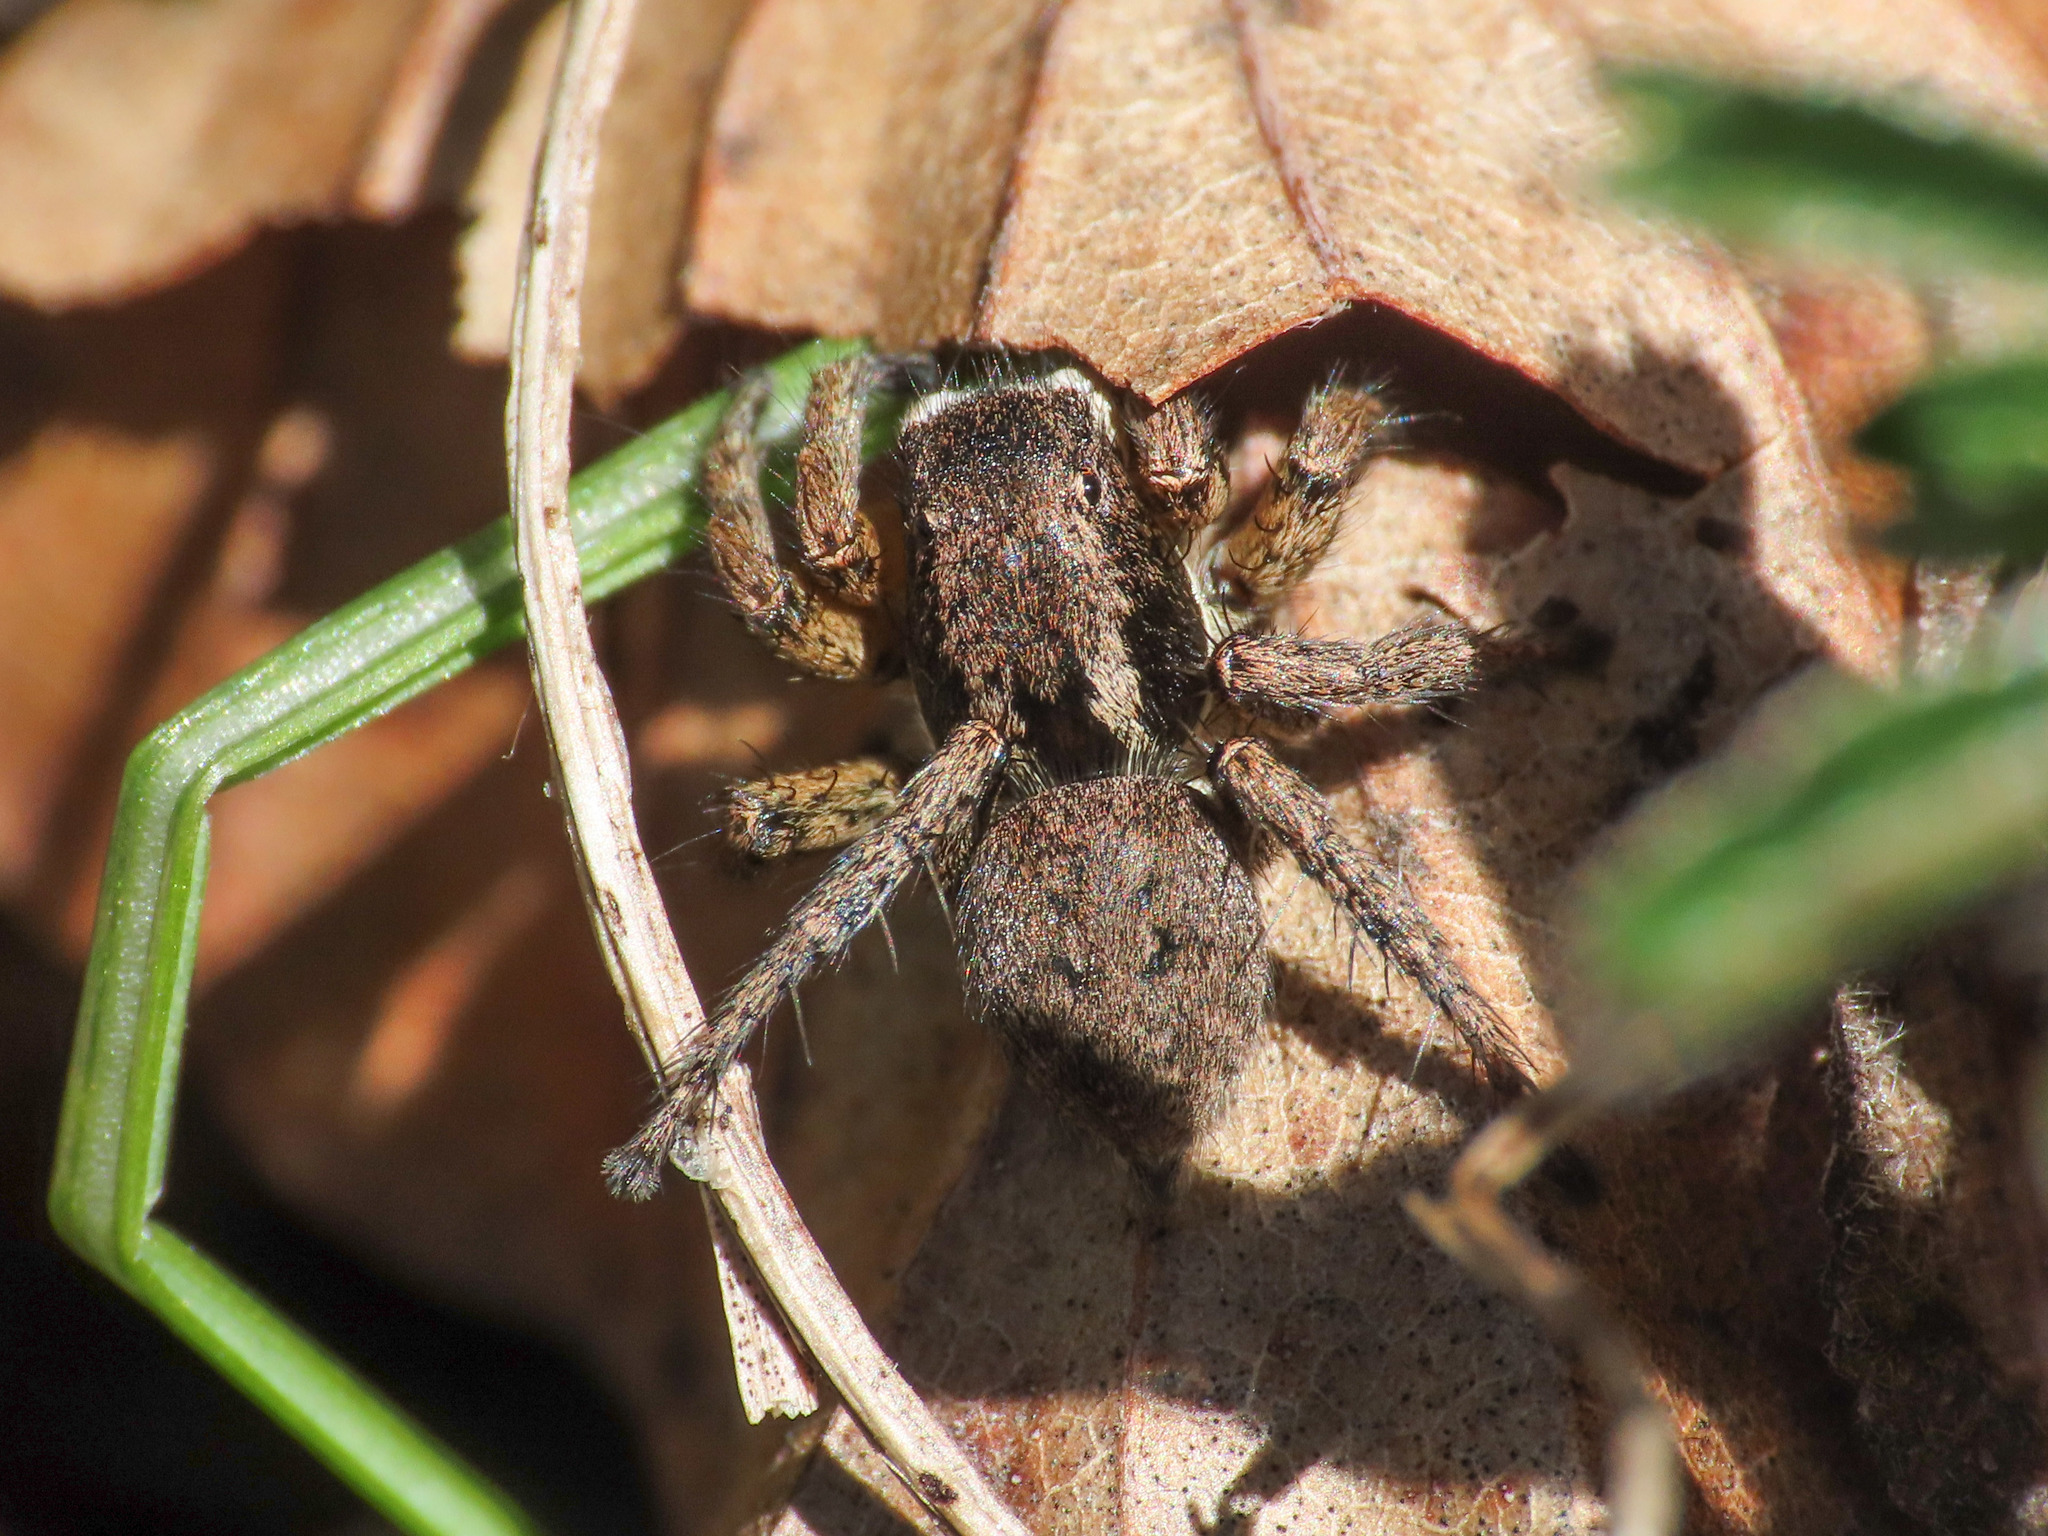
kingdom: Animalia
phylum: Arthropoda
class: Arachnida
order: Araneae
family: Salticidae
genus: Asianellus
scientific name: Asianellus festivus
